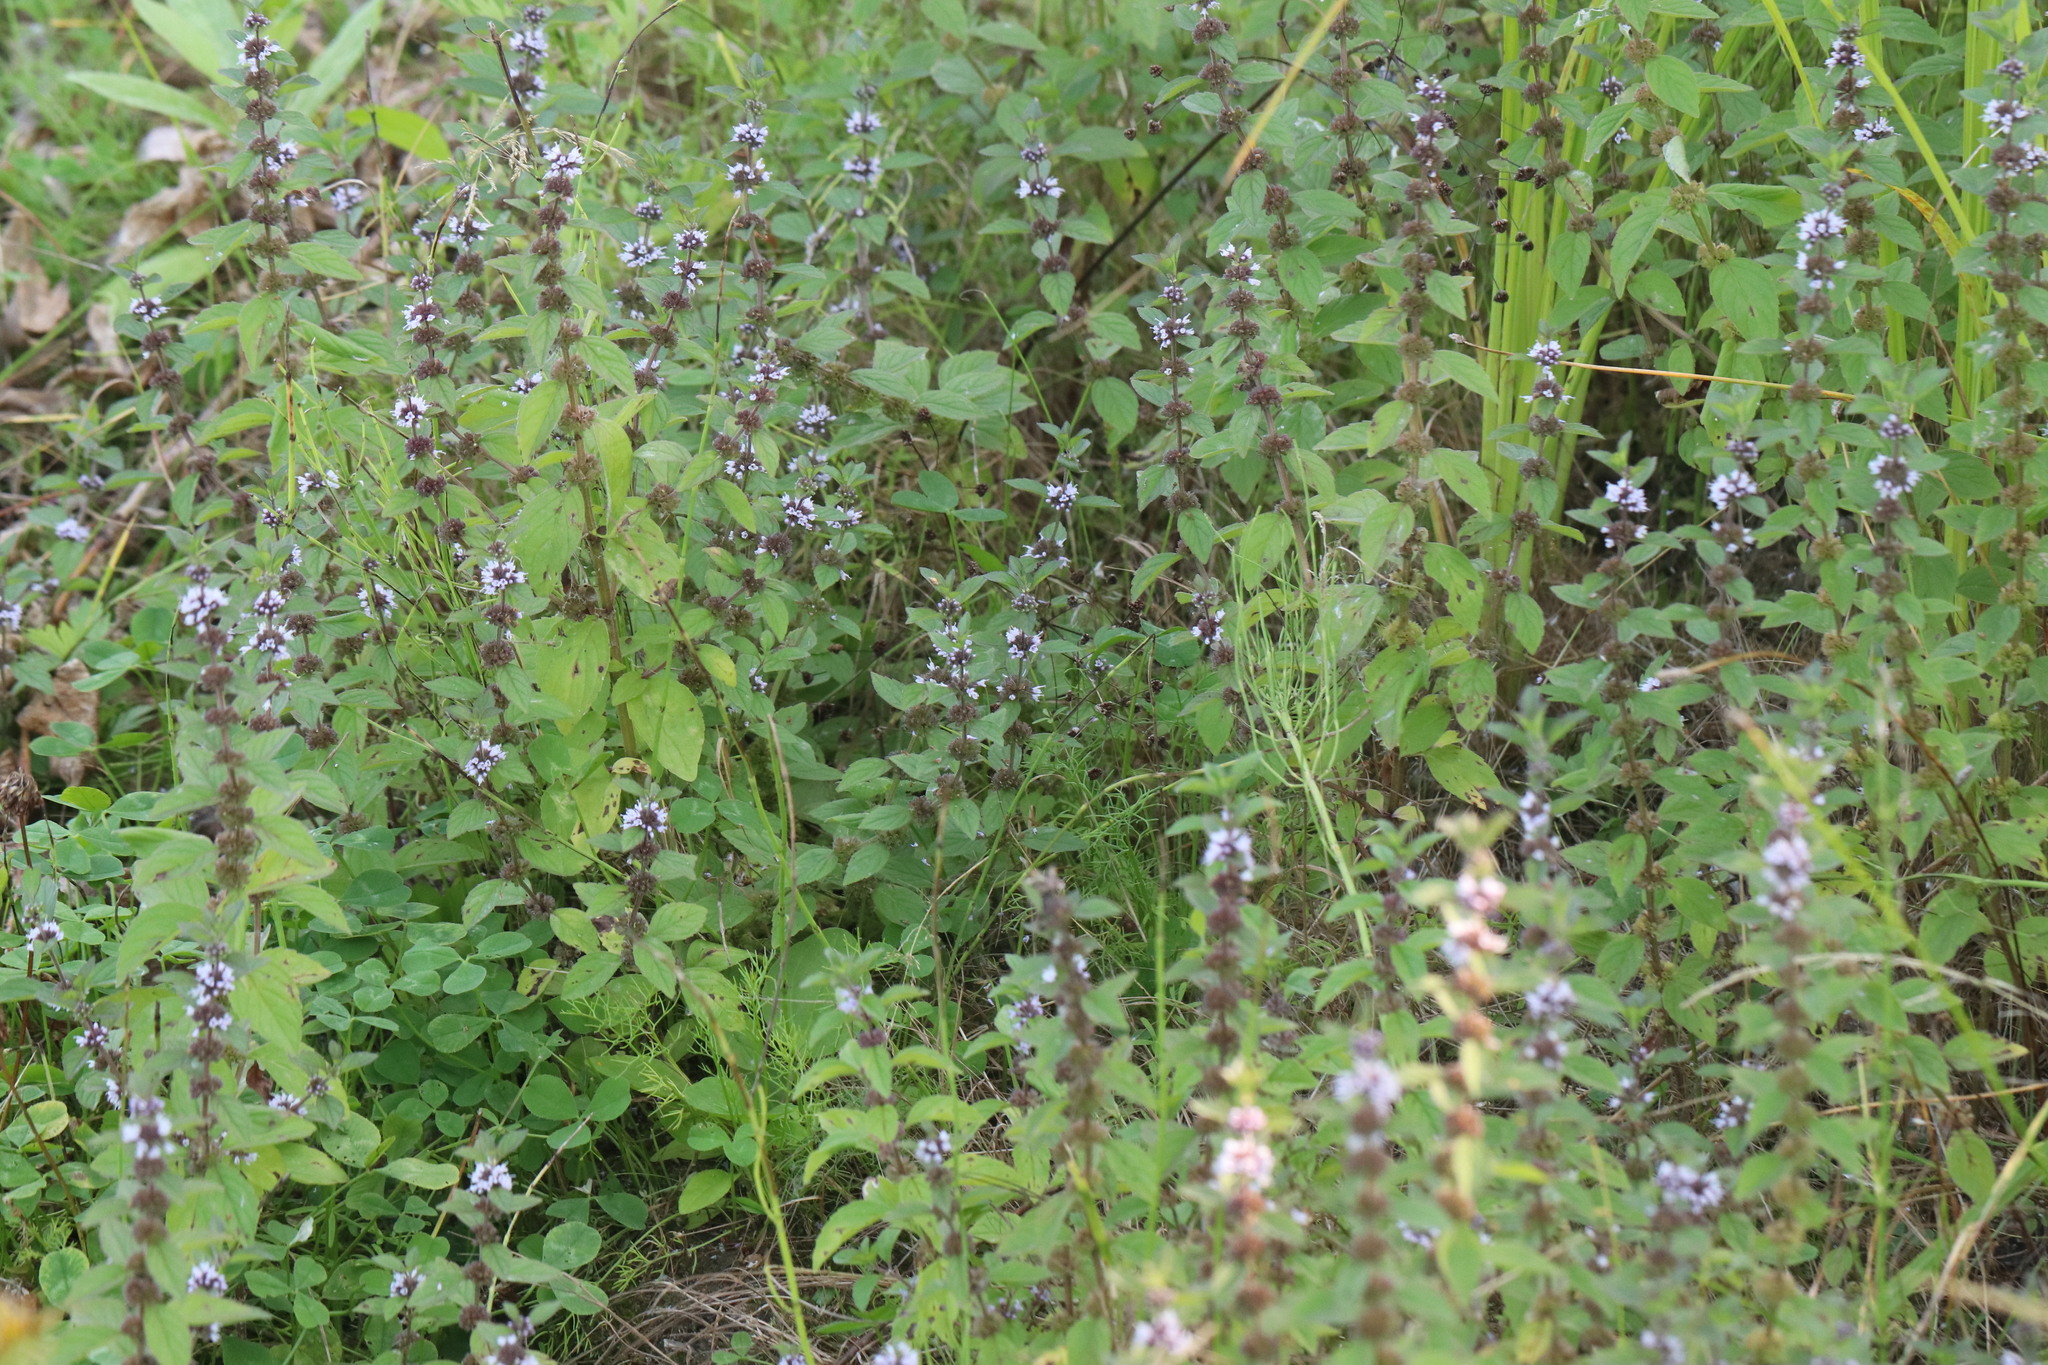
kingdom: Plantae
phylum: Tracheophyta
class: Magnoliopsida
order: Lamiales
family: Lamiaceae
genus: Mentha
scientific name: Mentha arvensis
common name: Corn mint
